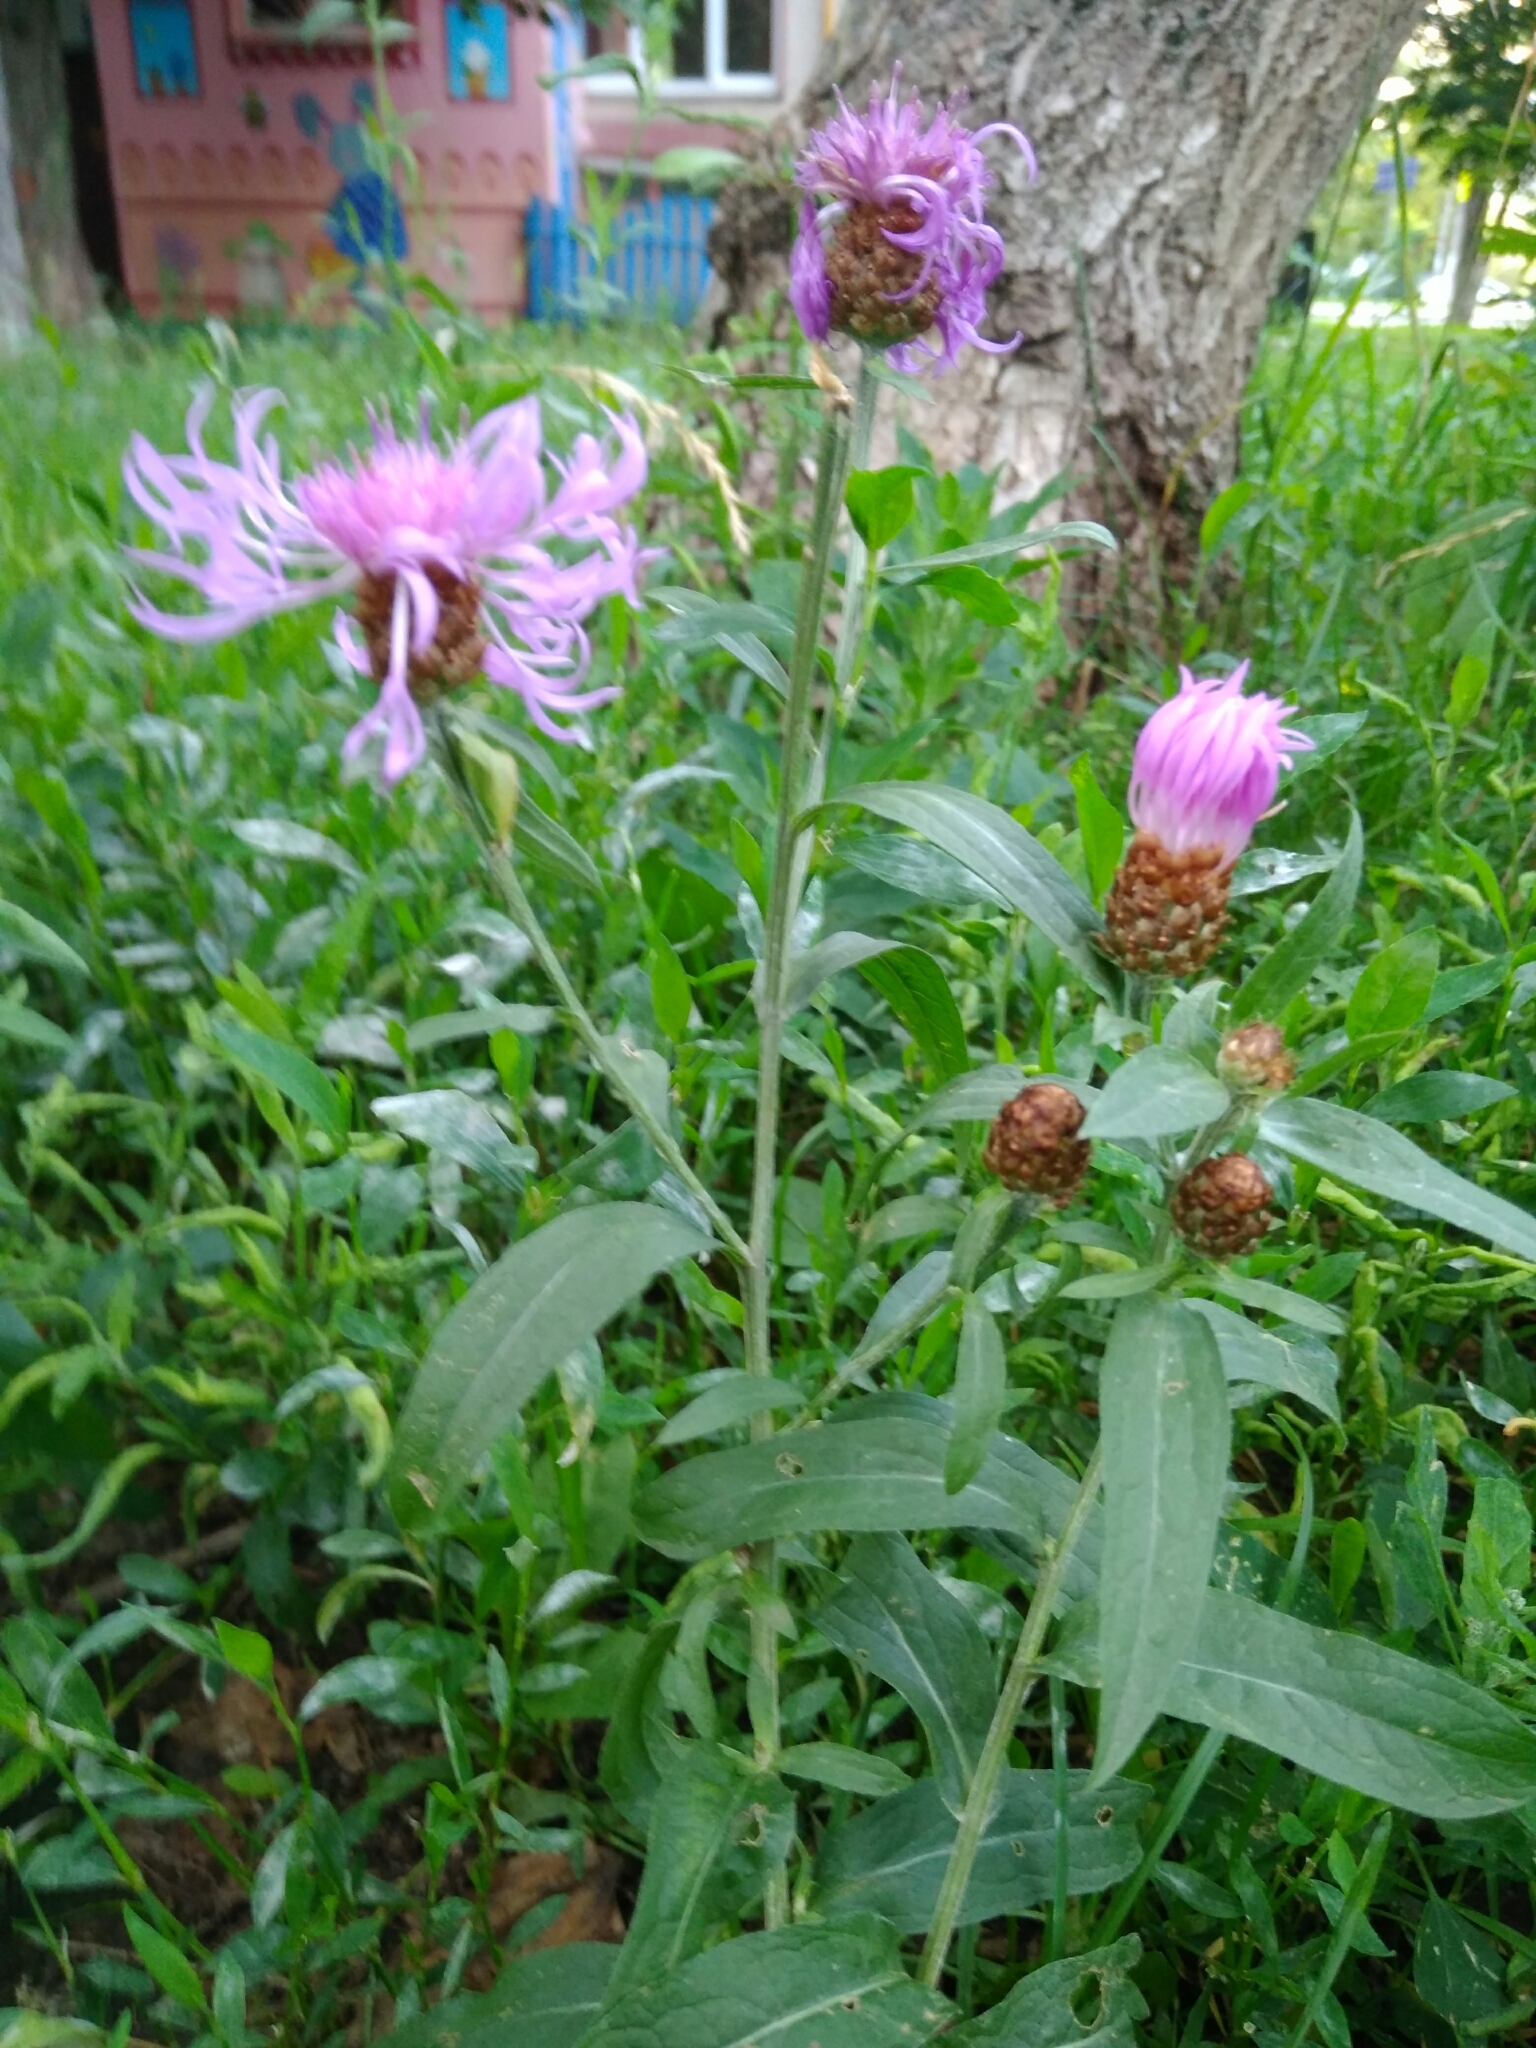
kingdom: Plantae
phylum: Tracheophyta
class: Magnoliopsida
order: Asterales
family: Asteraceae
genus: Centaurea
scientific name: Centaurea jacea
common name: Brown knapweed
